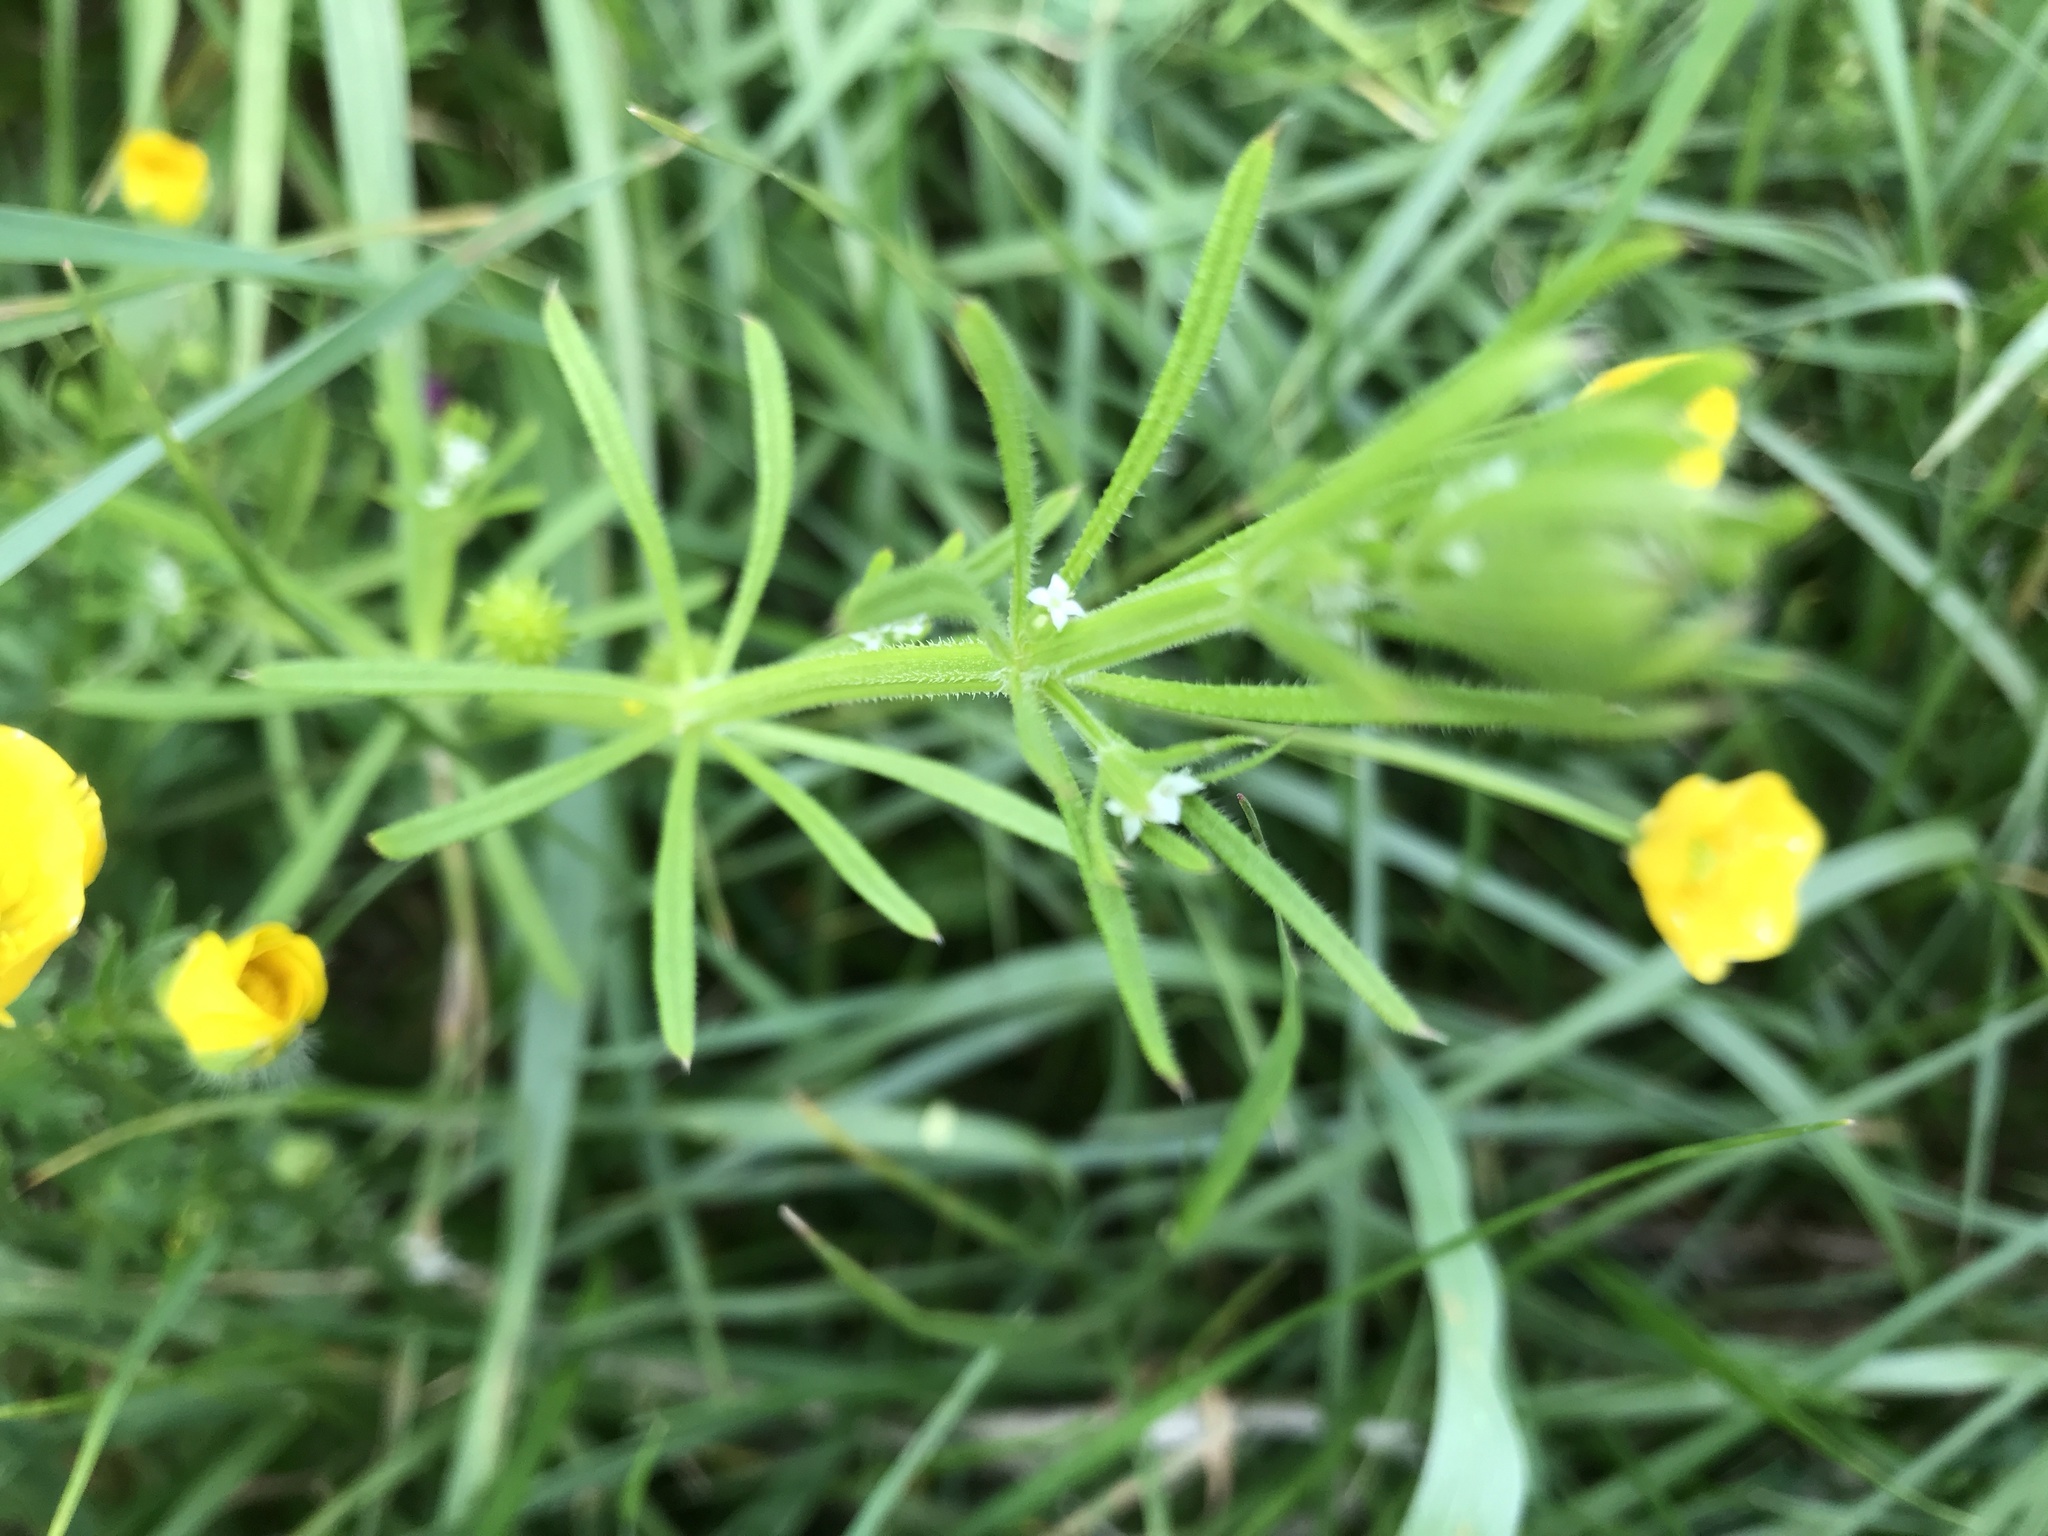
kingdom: Plantae
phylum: Tracheophyta
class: Magnoliopsida
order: Gentianales
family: Rubiaceae
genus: Galium
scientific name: Galium aparine
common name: Cleavers
